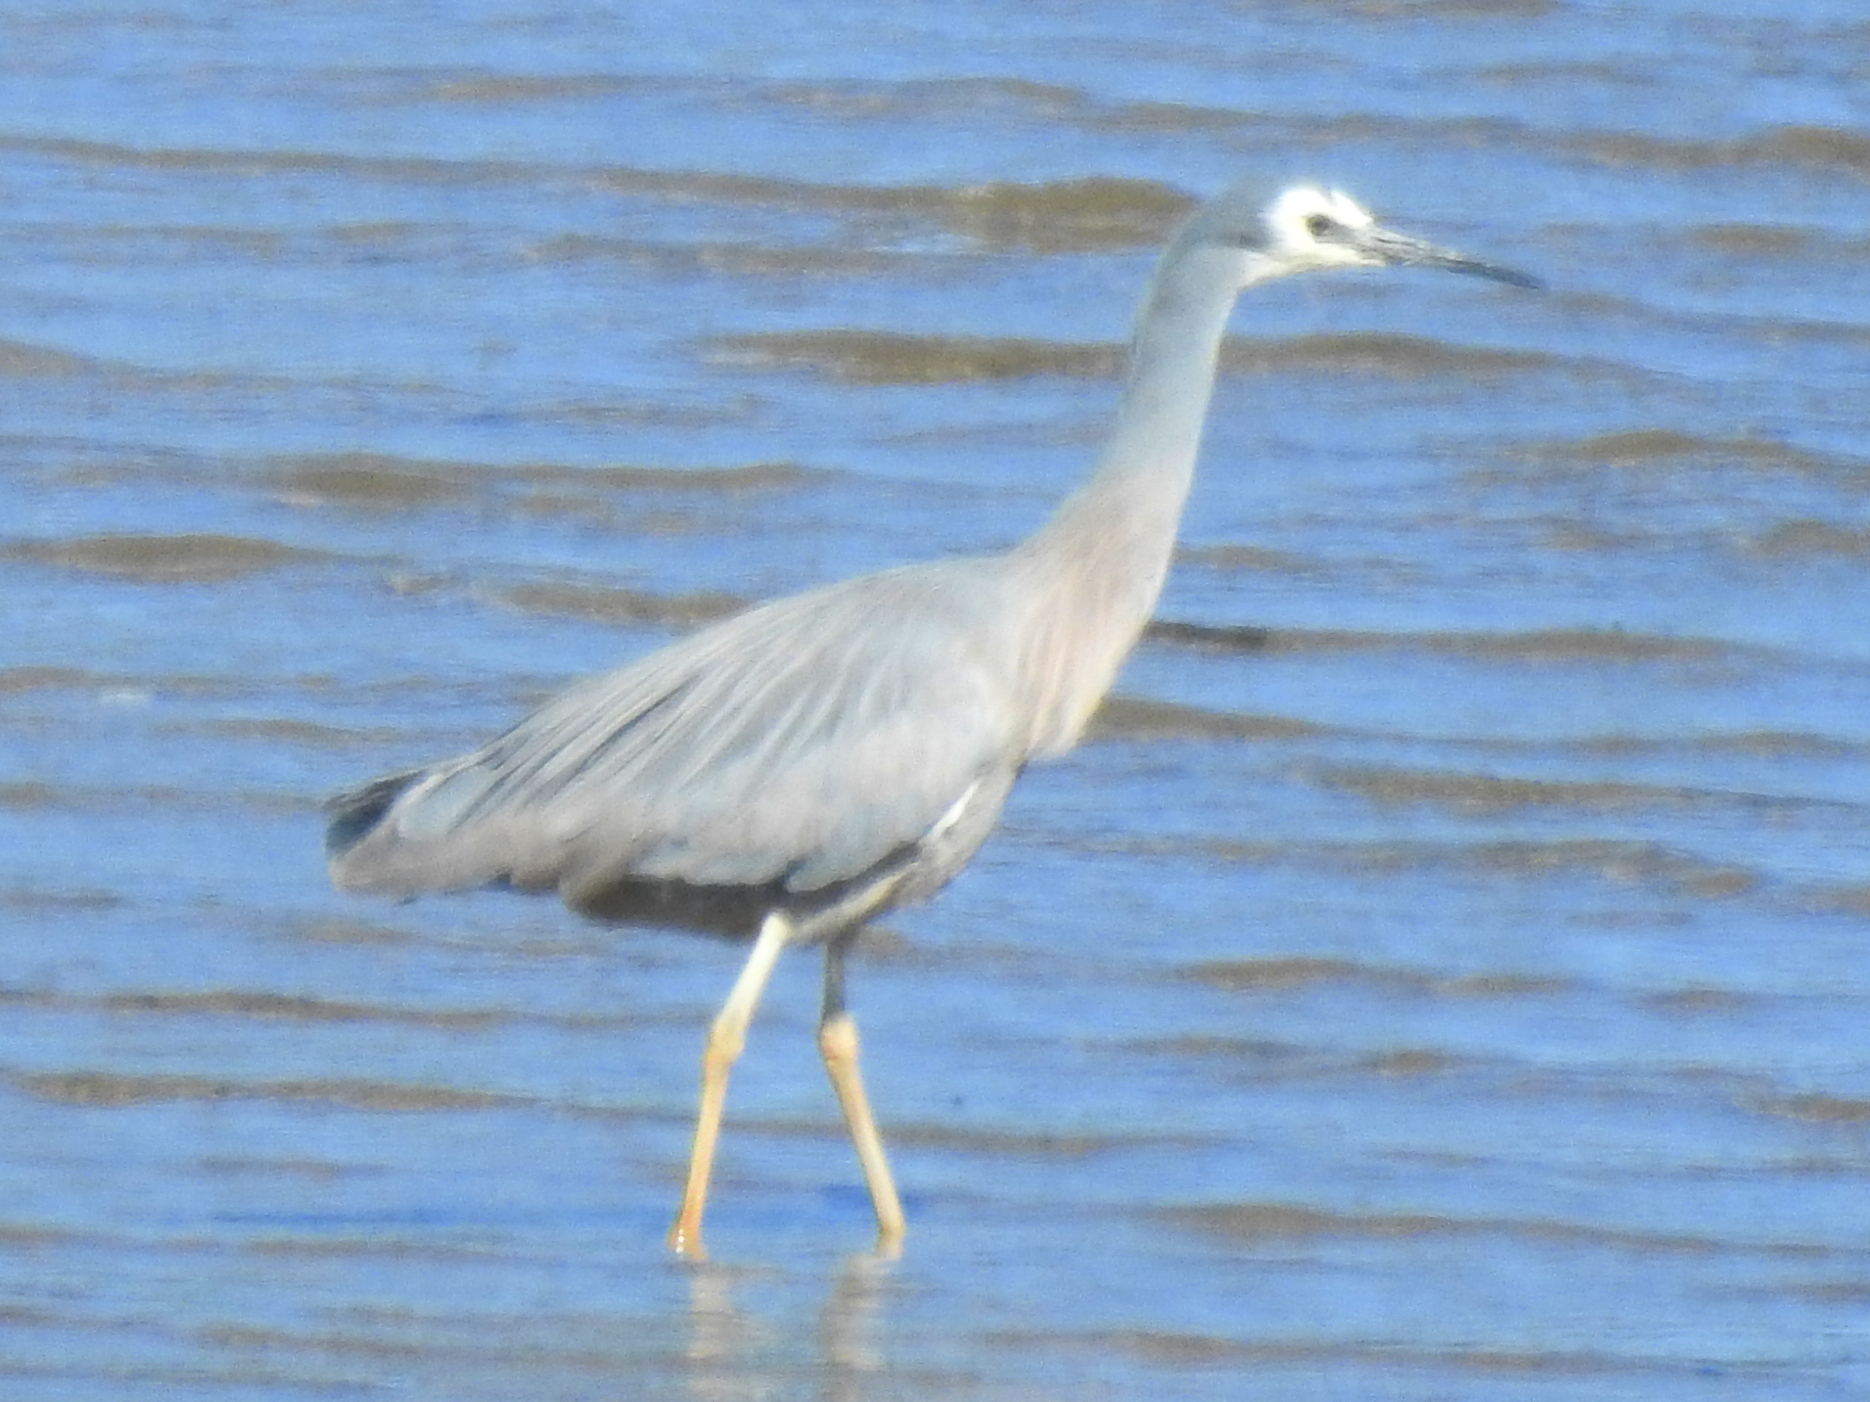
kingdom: Animalia
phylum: Chordata
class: Aves
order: Pelecaniformes
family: Ardeidae
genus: Egretta
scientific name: Egretta novaehollandiae
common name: White-faced heron
